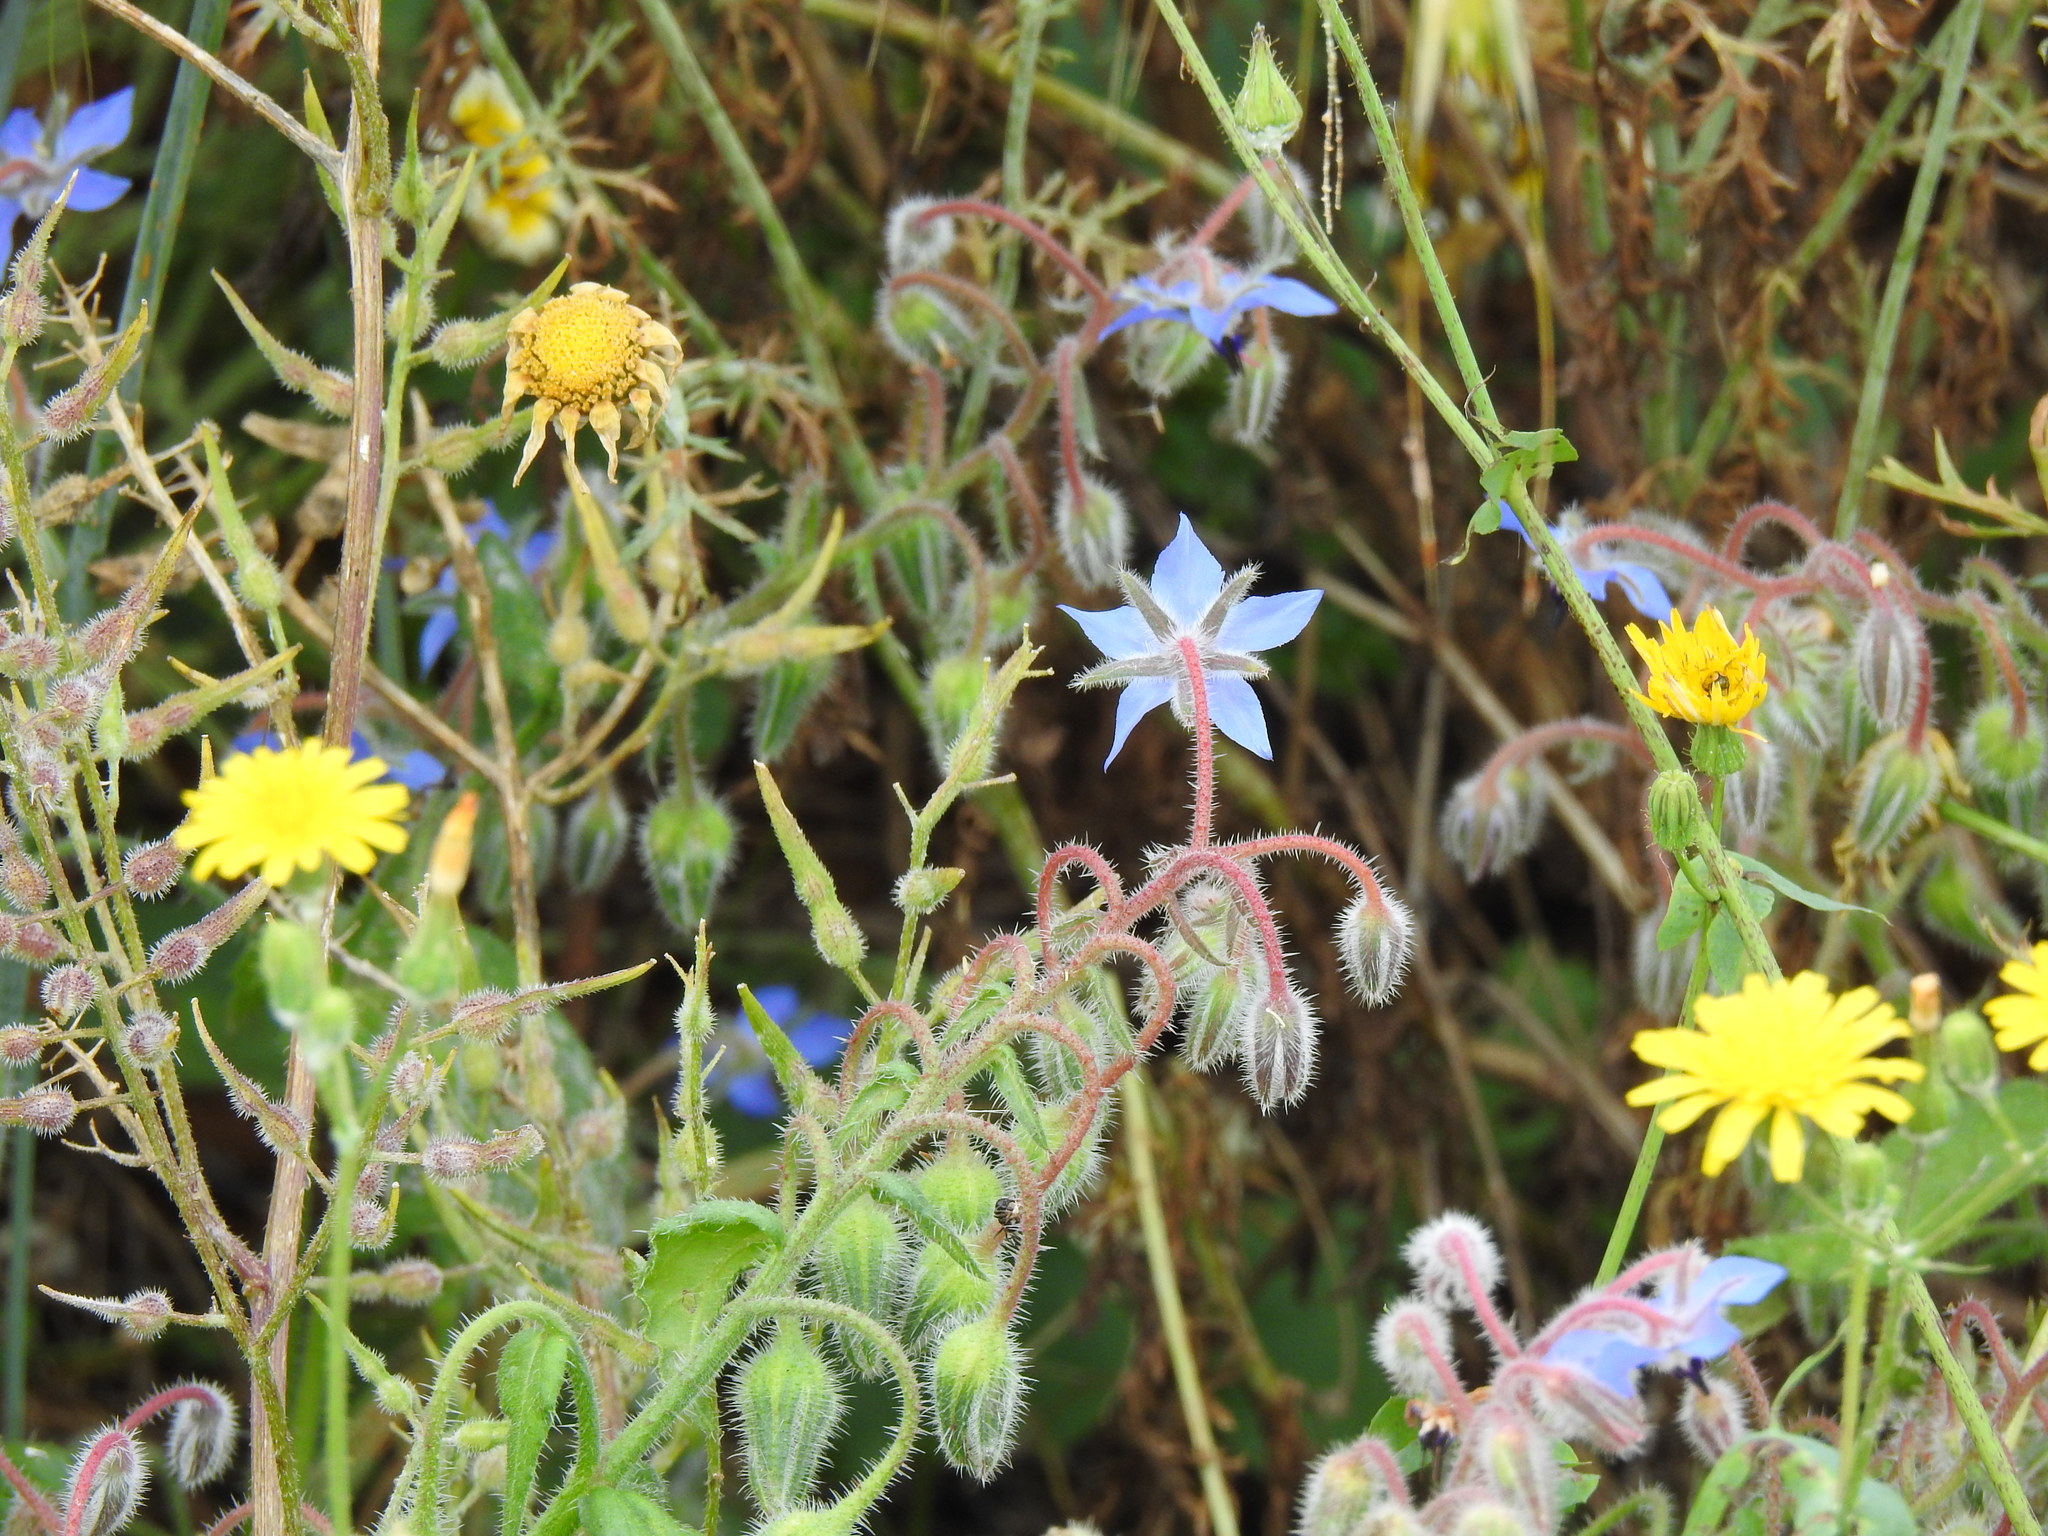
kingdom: Plantae
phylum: Tracheophyta
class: Magnoliopsida
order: Boraginales
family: Boraginaceae
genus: Borago
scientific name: Borago officinalis
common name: Borage
